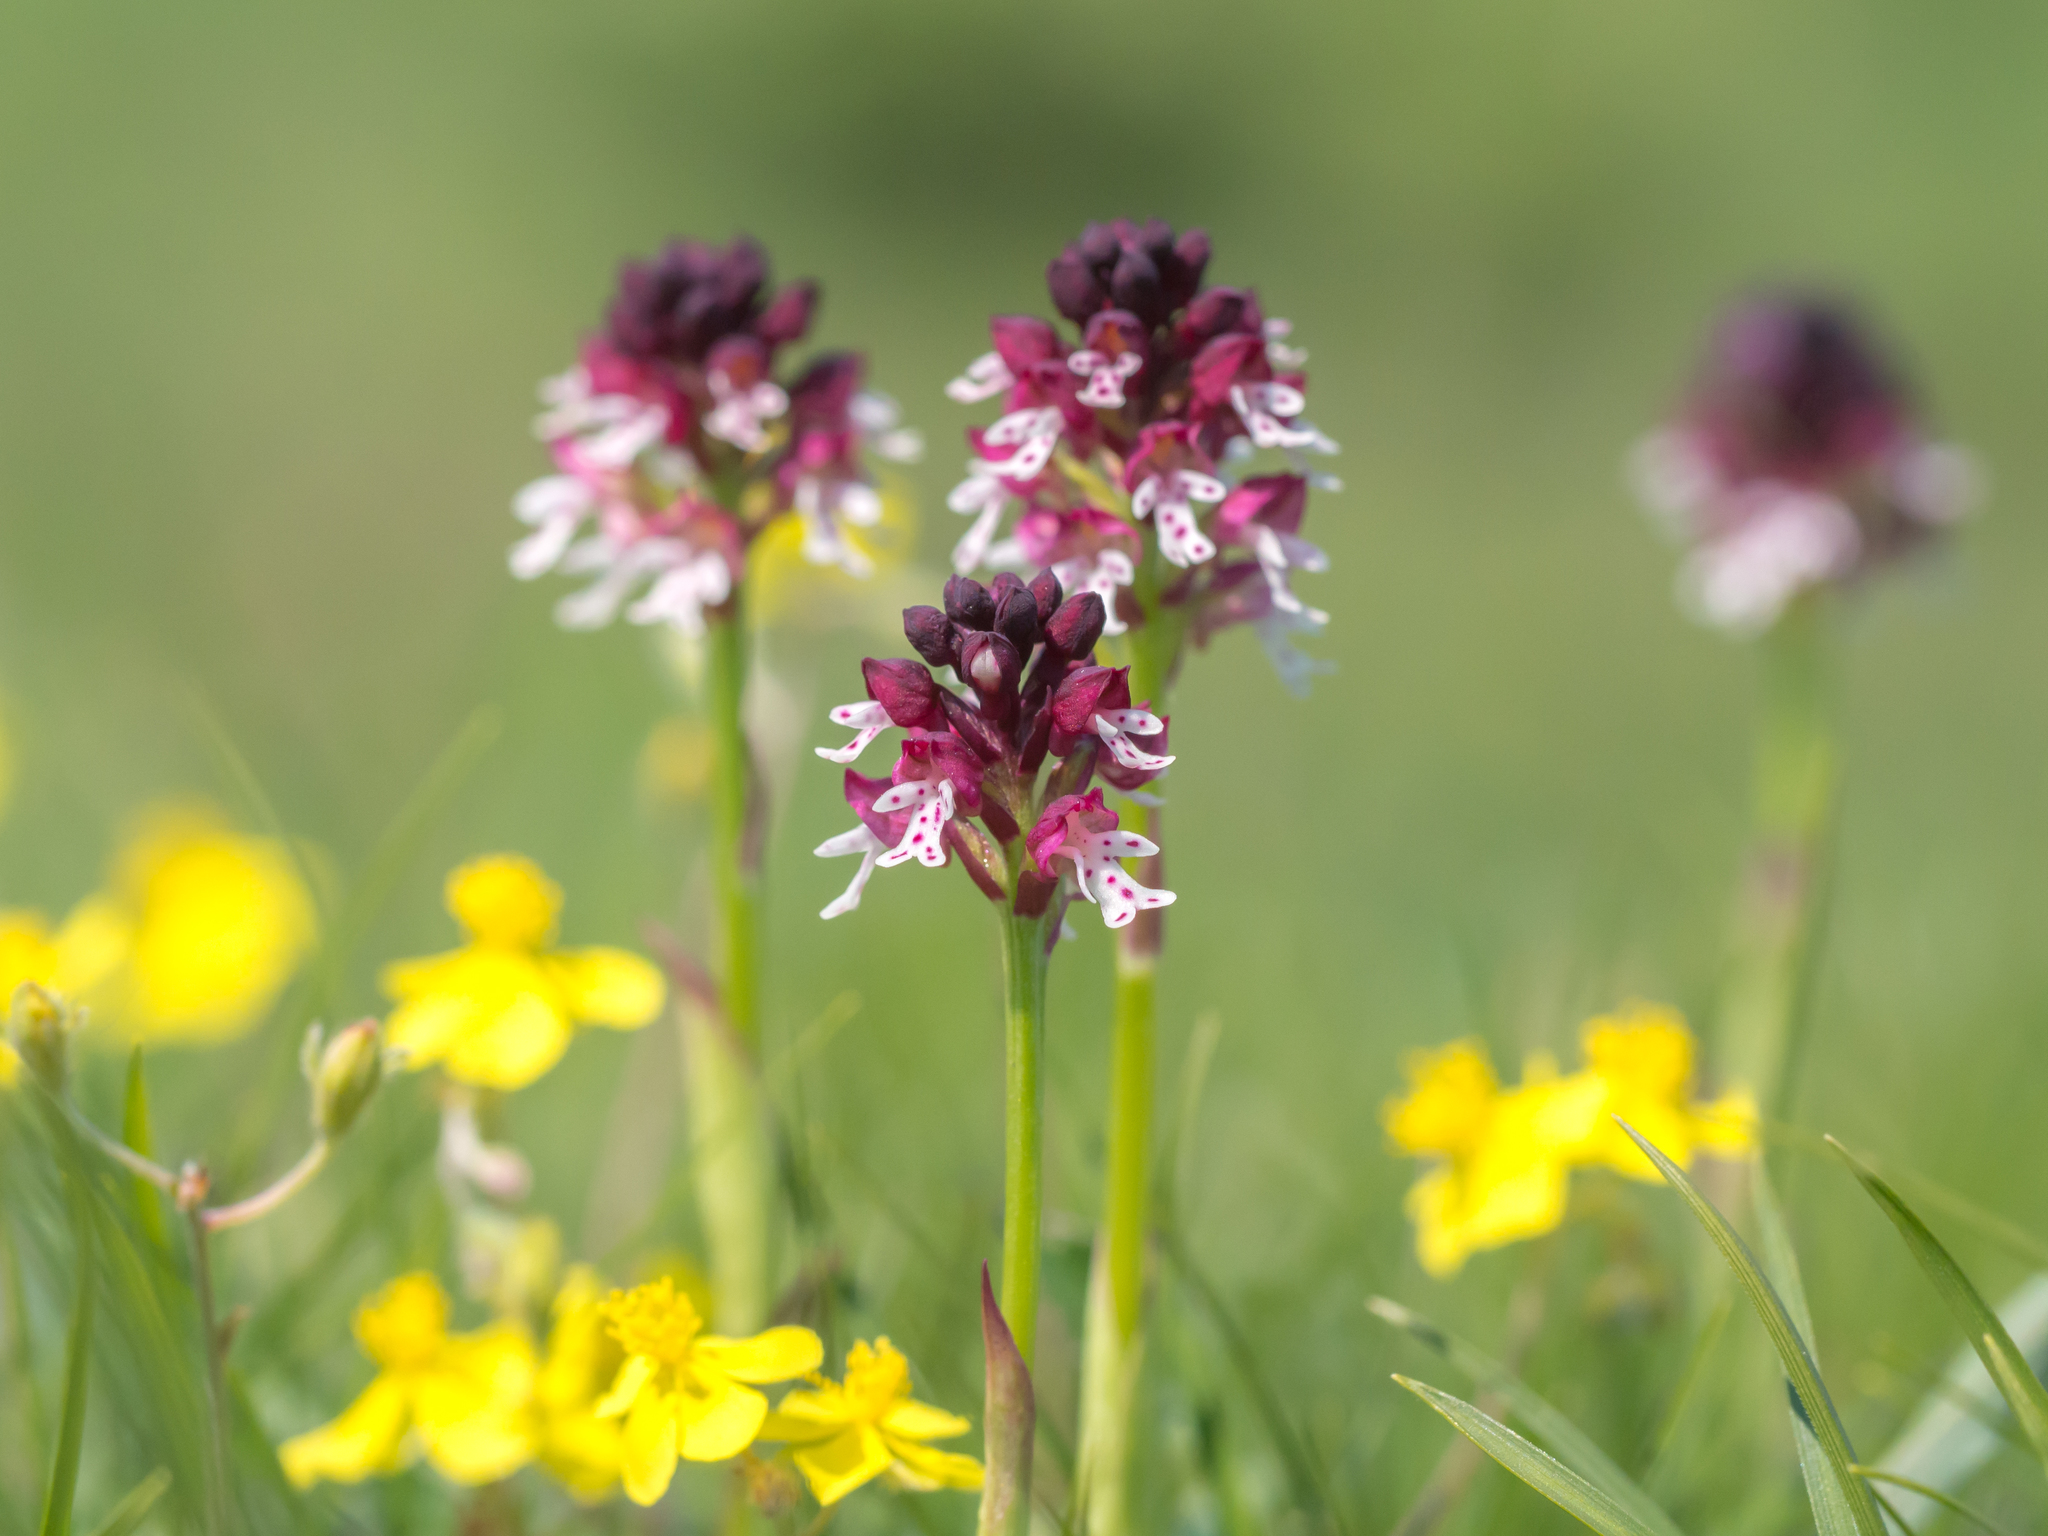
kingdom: Plantae
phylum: Tracheophyta
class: Liliopsida
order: Asparagales
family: Orchidaceae
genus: Neotinea
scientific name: Neotinea ustulata
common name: Burnt orchid
